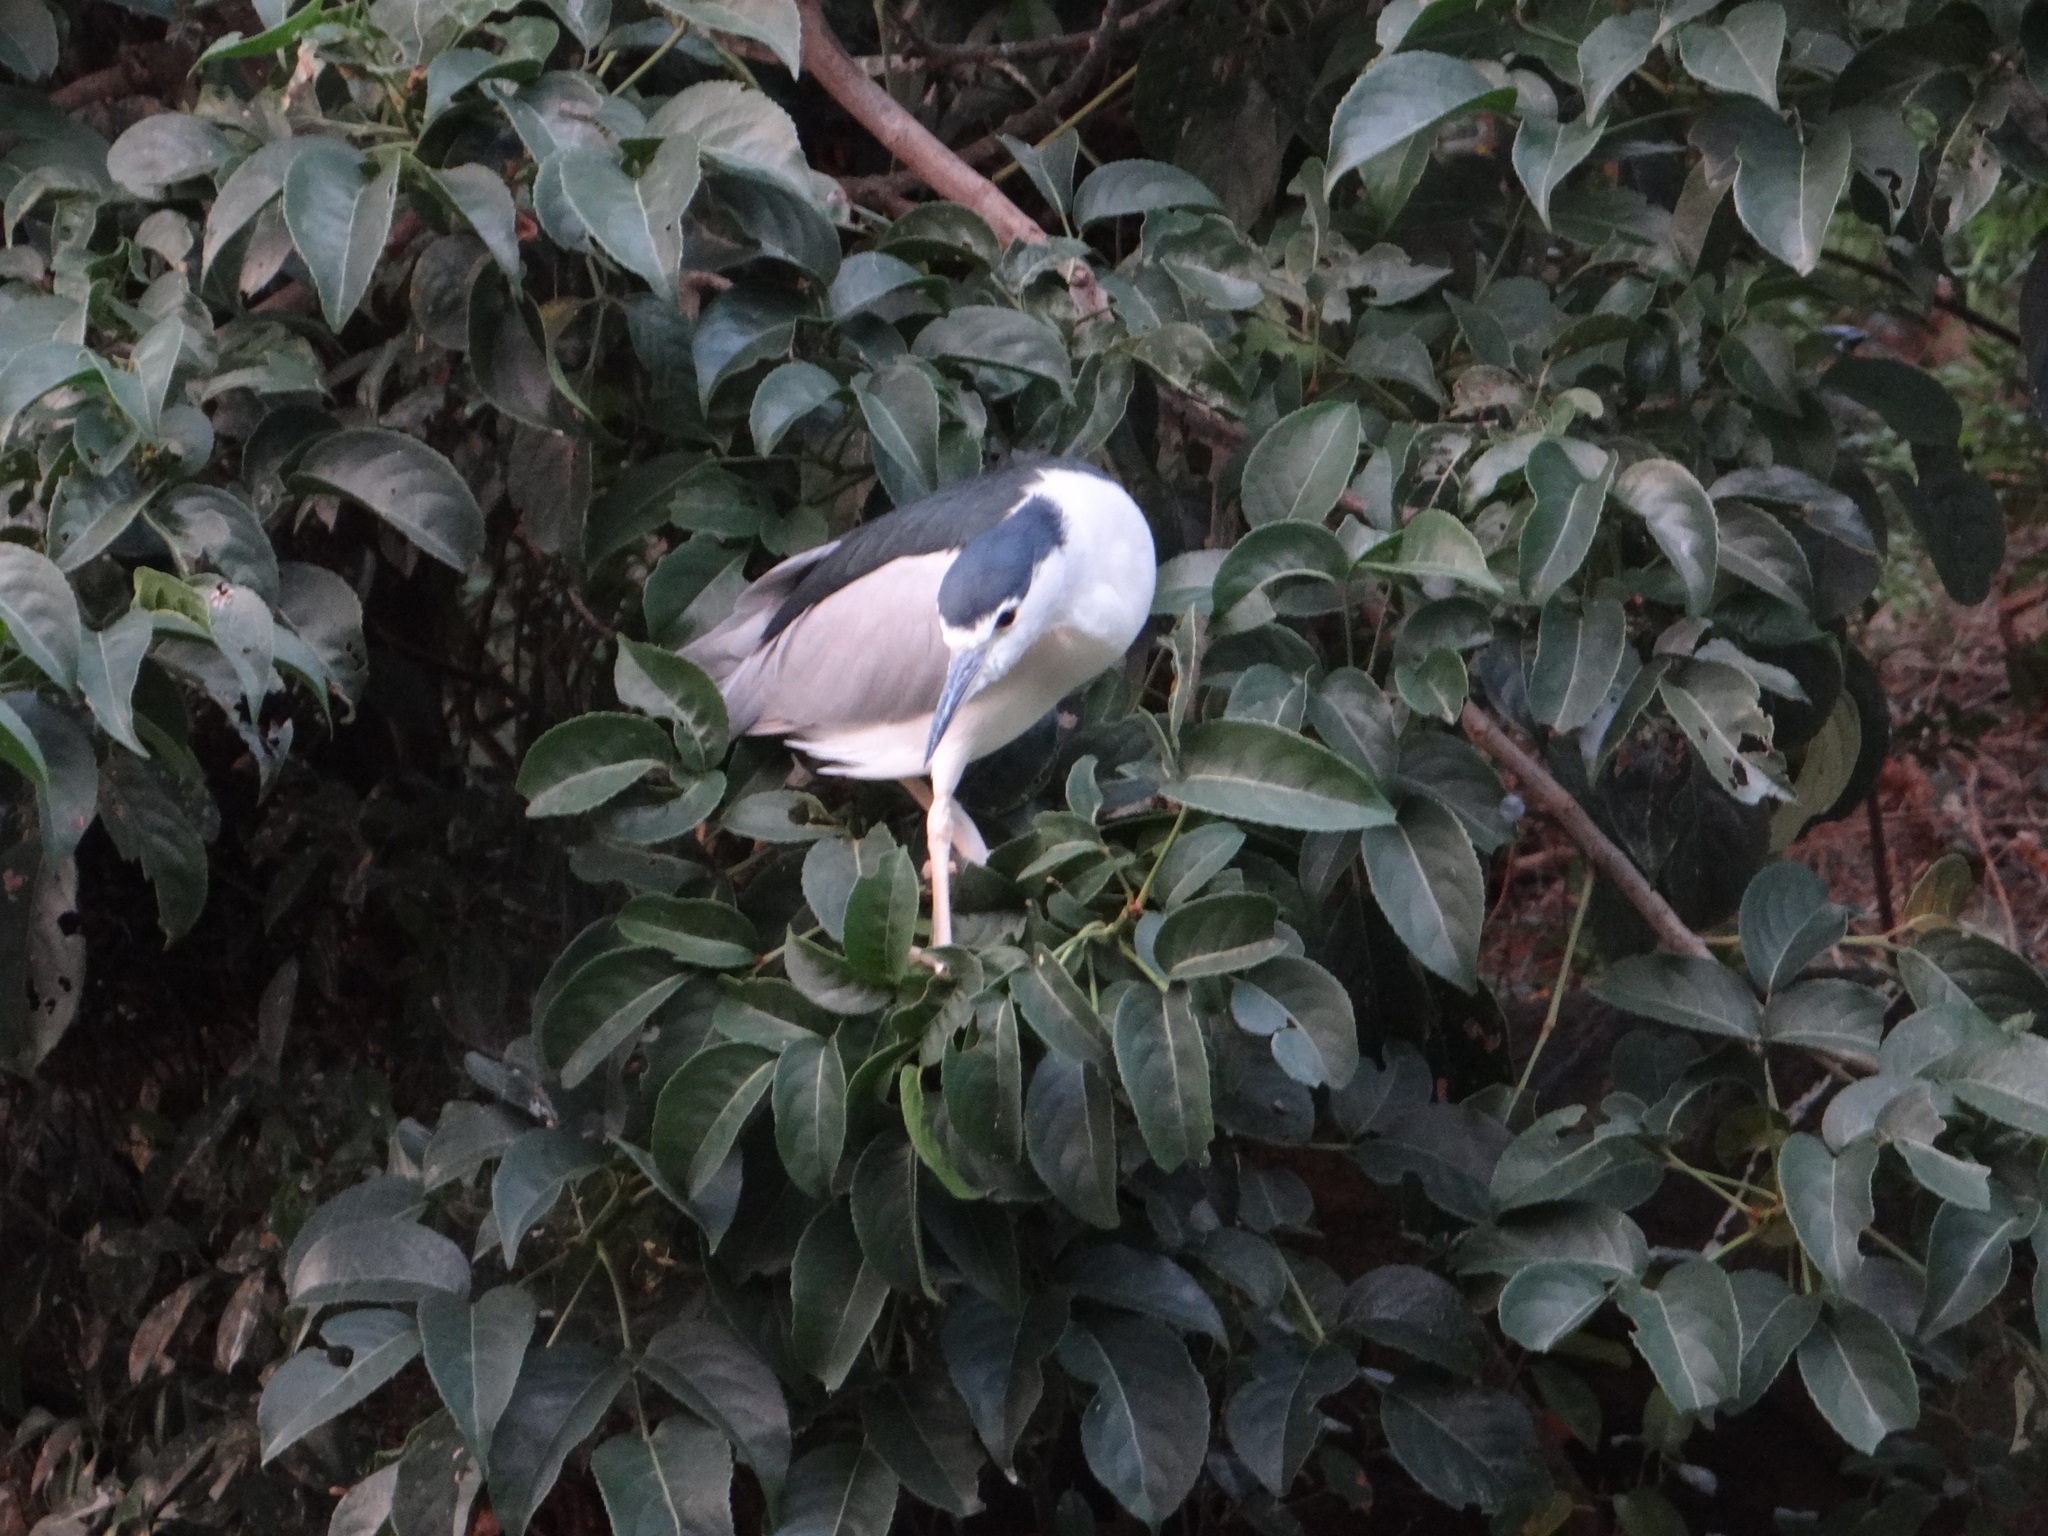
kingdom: Animalia
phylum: Chordata
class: Aves
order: Pelecaniformes
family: Ardeidae
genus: Nycticorax
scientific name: Nycticorax nycticorax
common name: Black-crowned night heron
